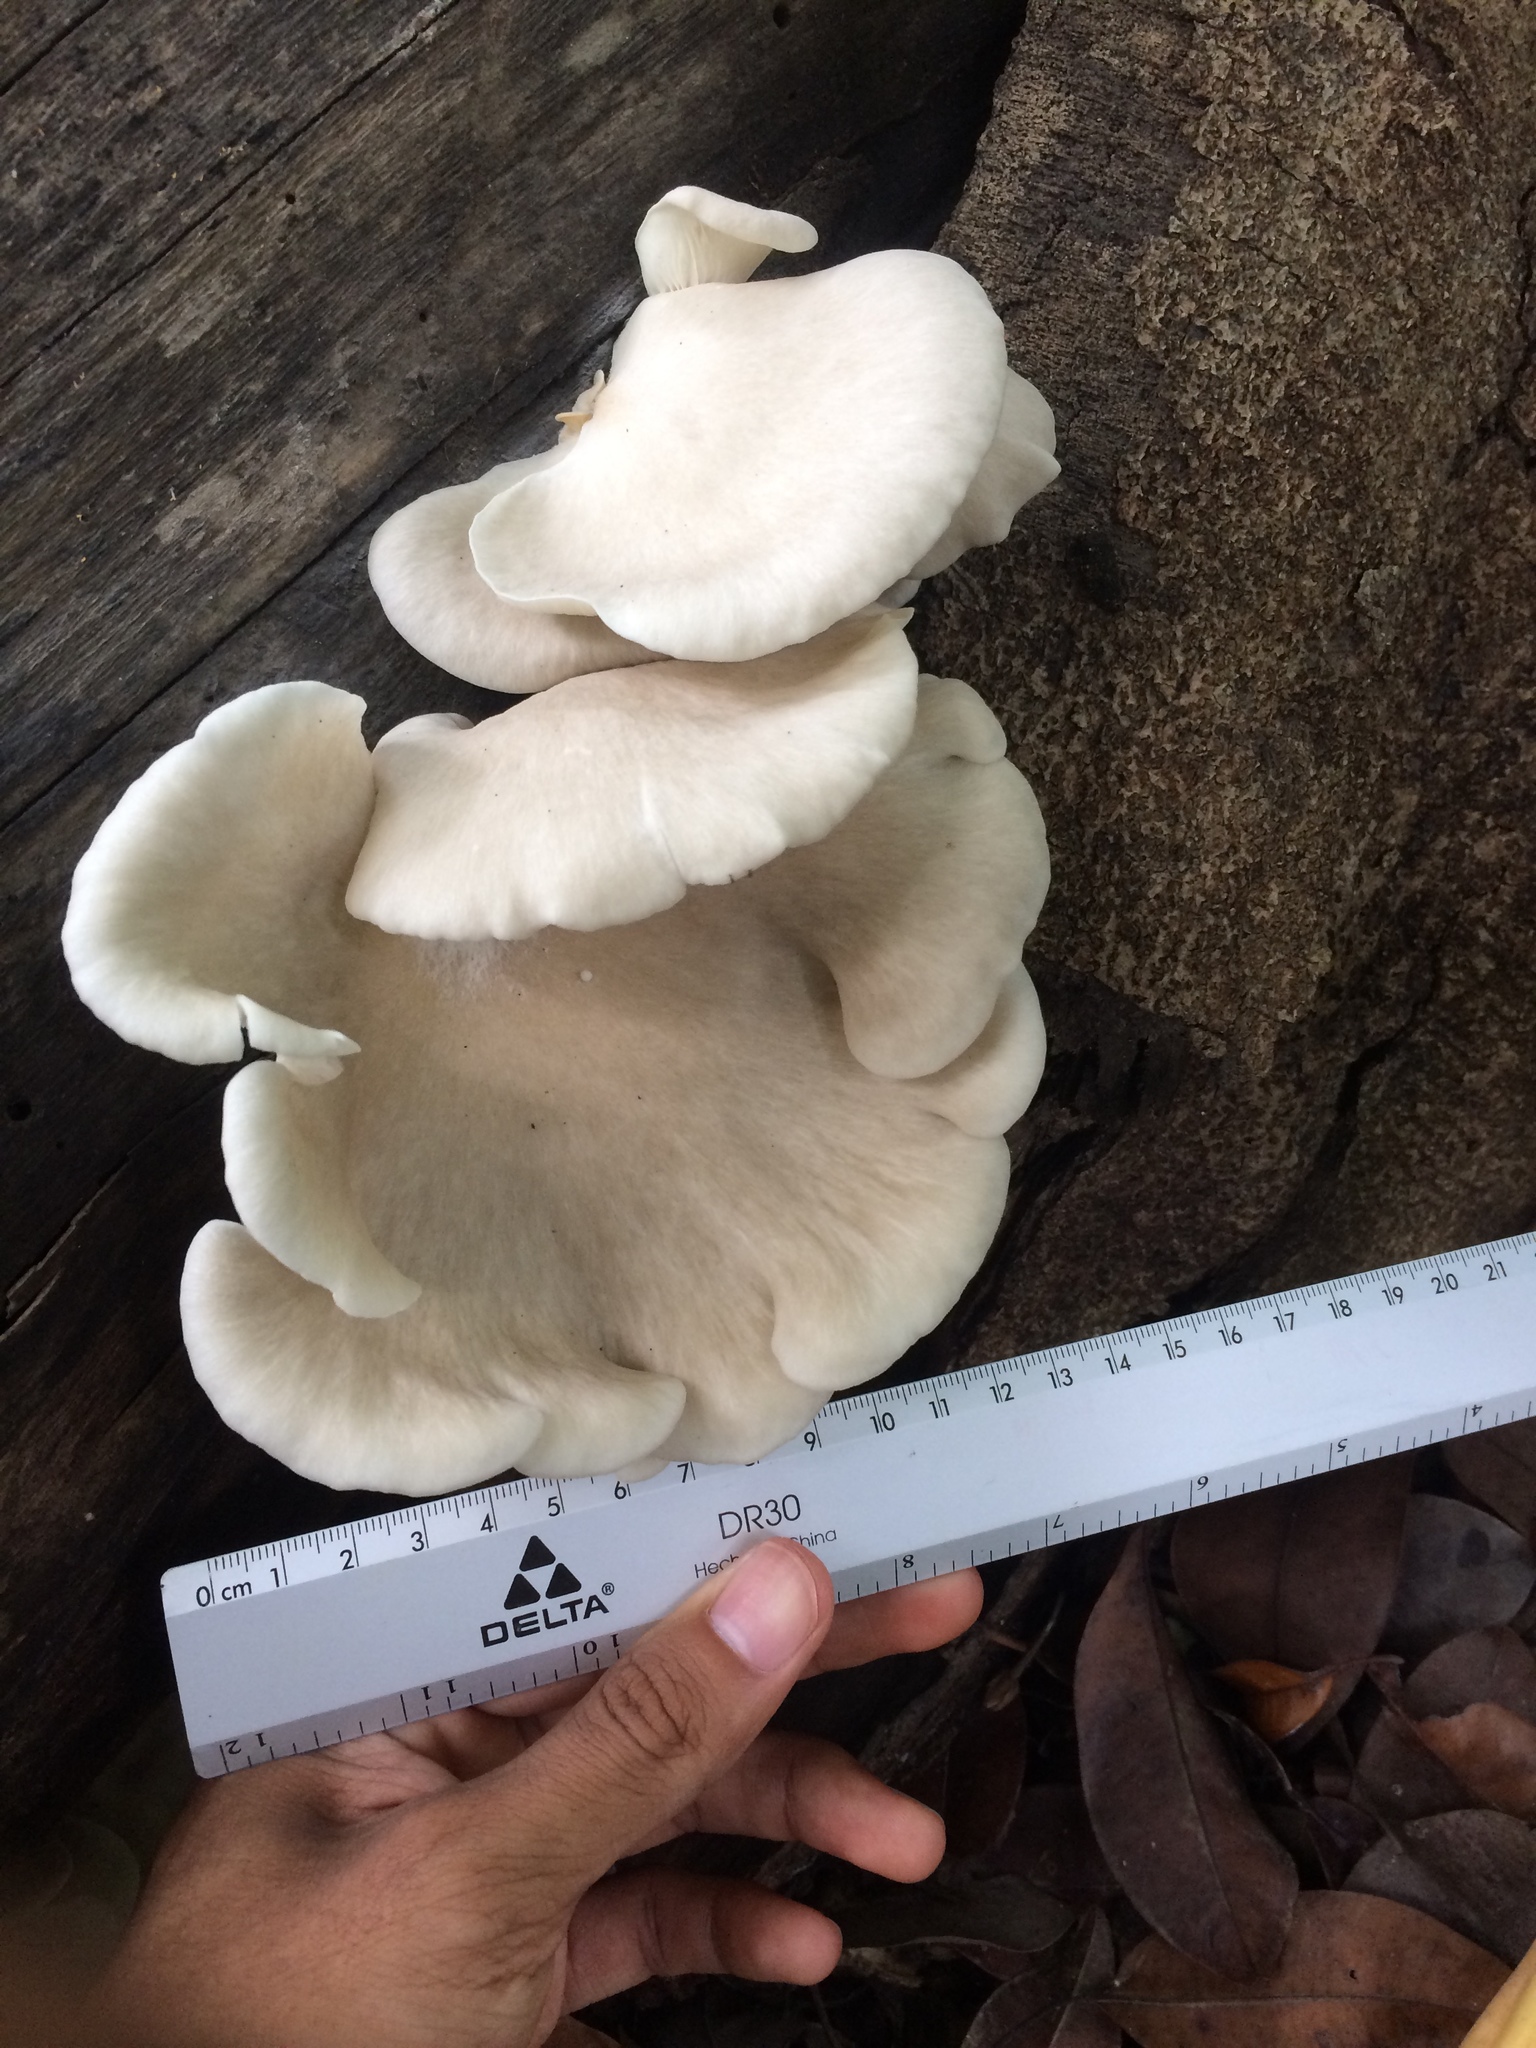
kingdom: Fungi
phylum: Basidiomycota
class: Agaricomycetes
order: Agaricales
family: Pleurotaceae
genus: Pleurotus
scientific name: Pleurotus djamor
